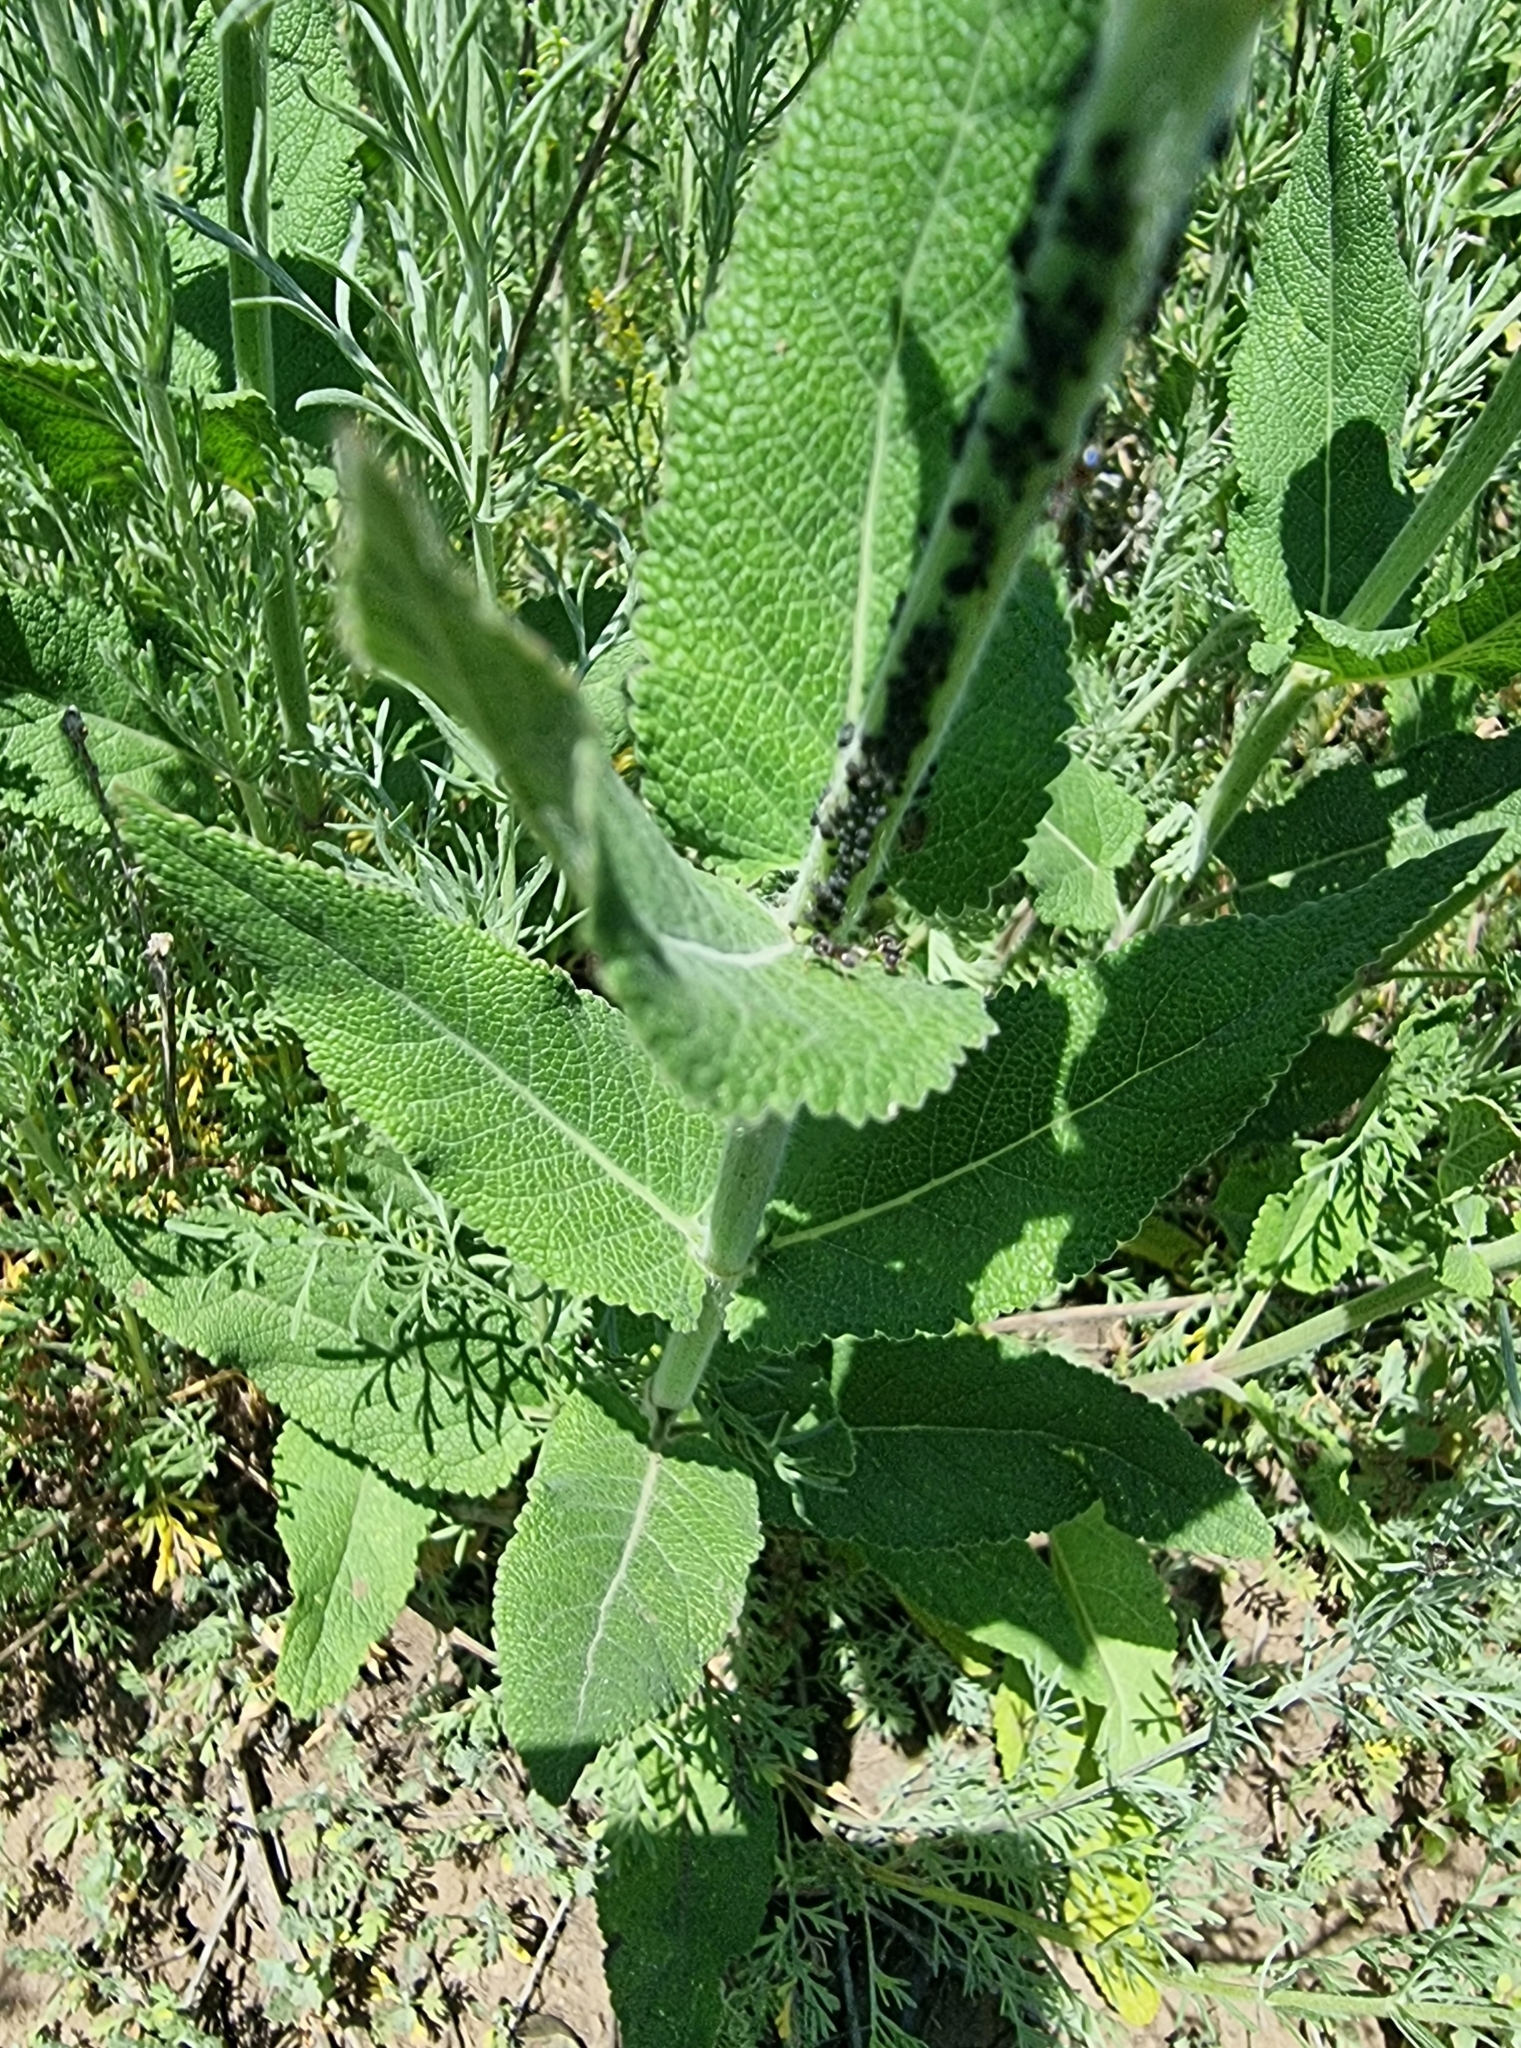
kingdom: Plantae
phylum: Tracheophyta
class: Magnoliopsida
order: Lamiales
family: Lamiaceae
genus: Salvia
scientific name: Salvia nemorosa
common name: Balkan clary
